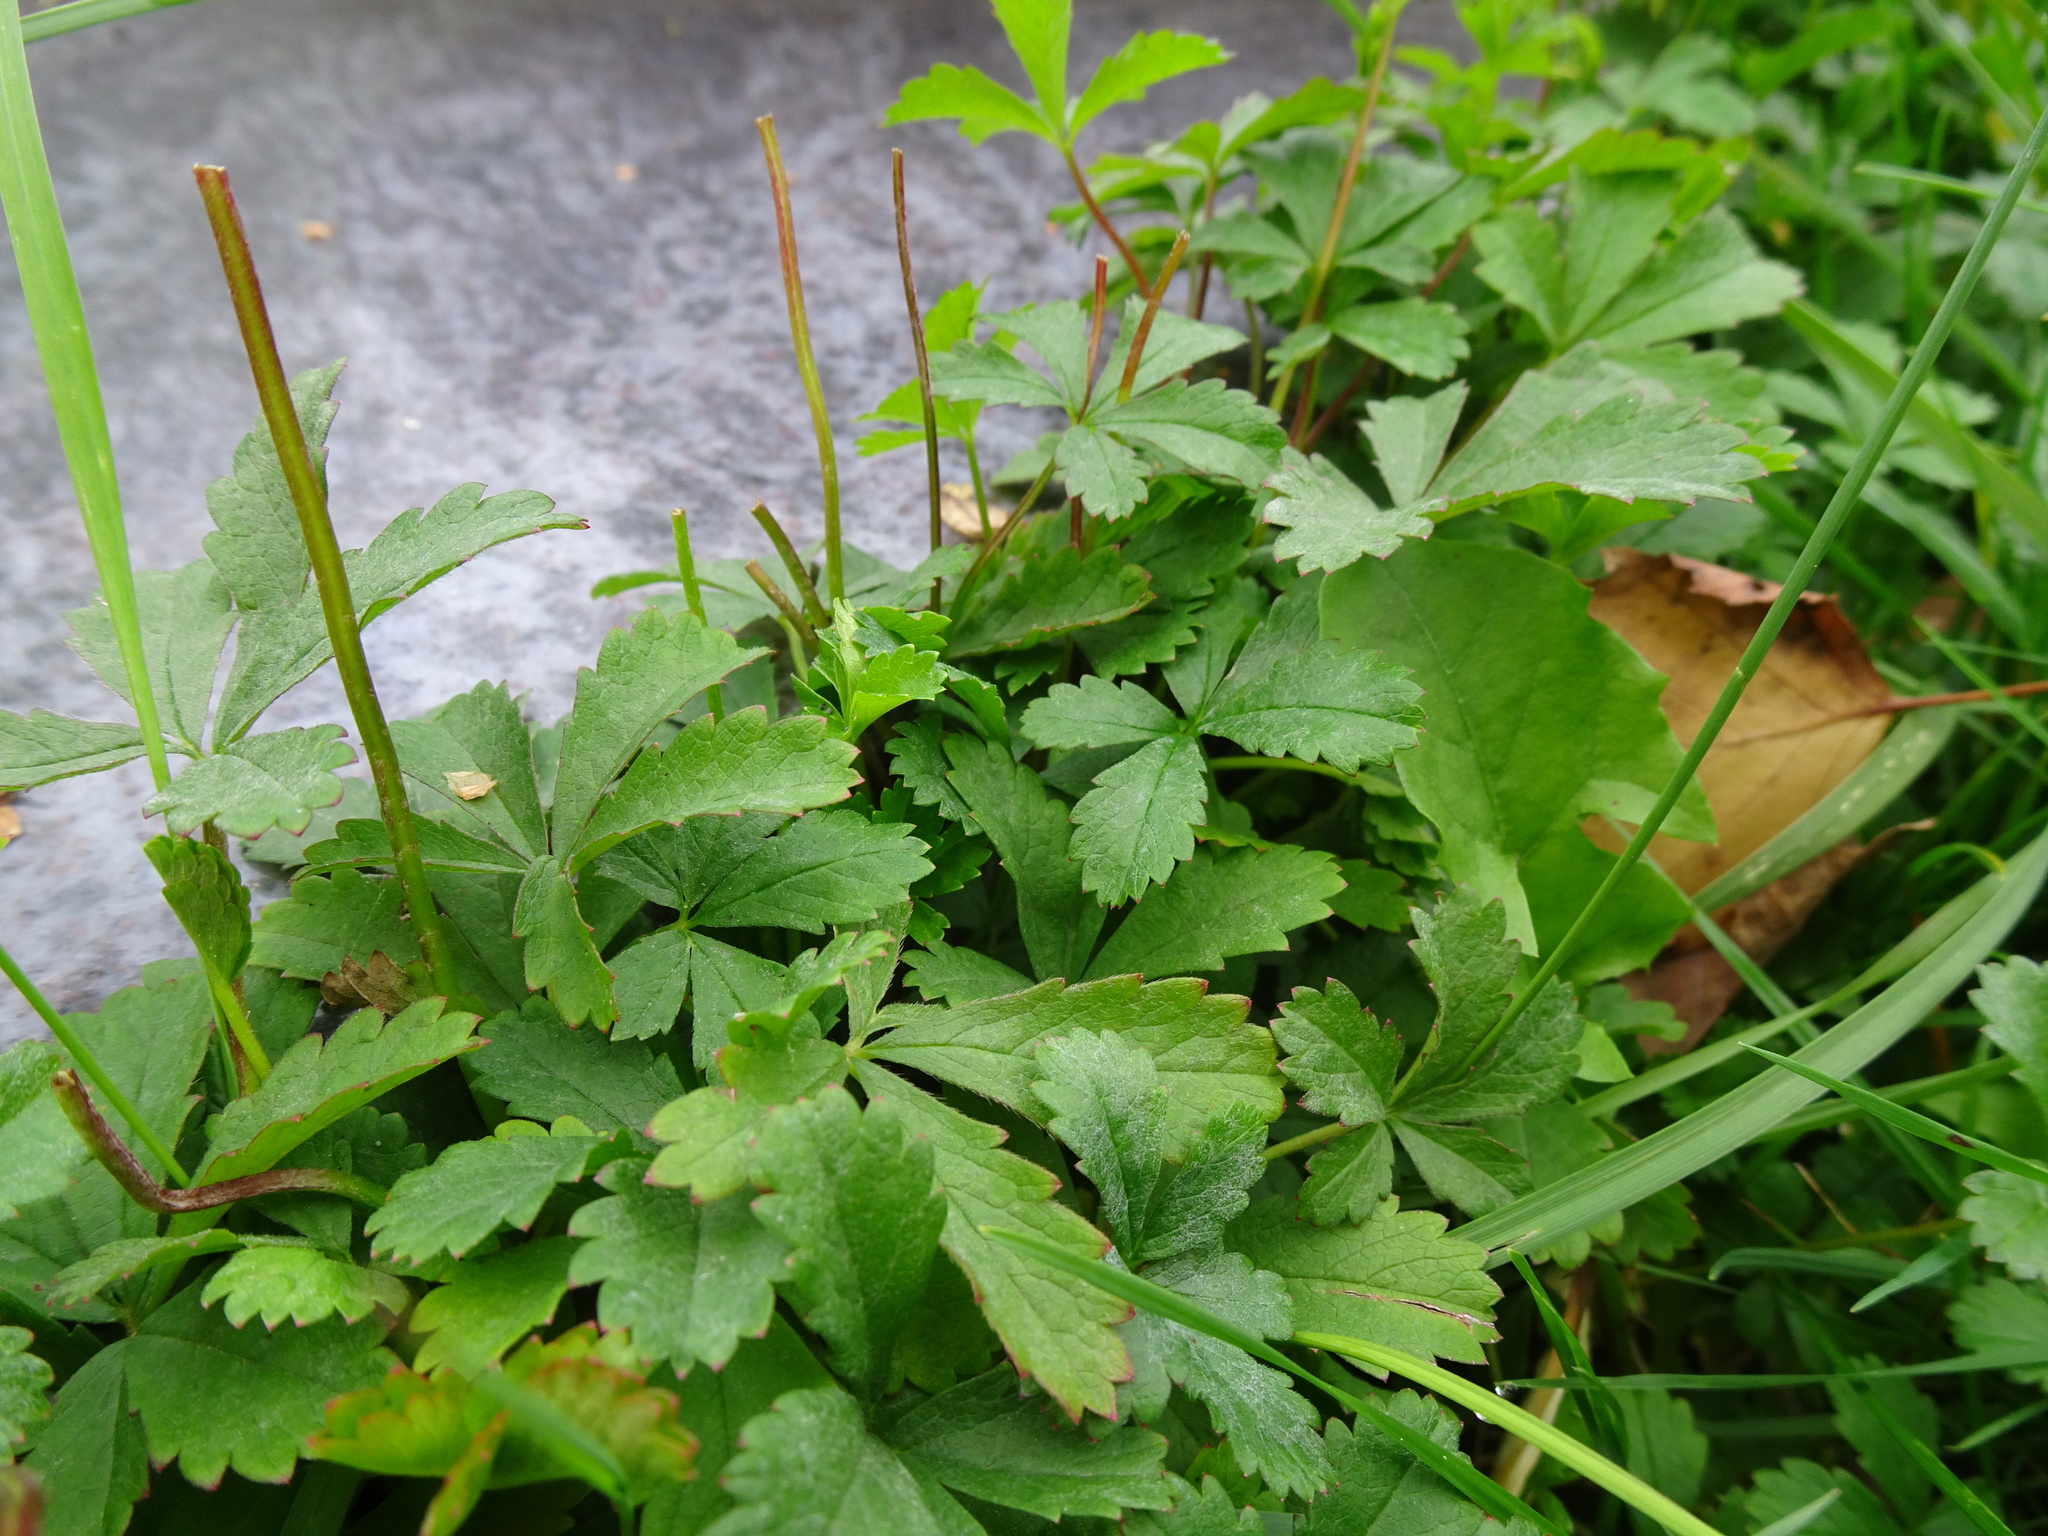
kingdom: Plantae
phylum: Tracheophyta
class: Magnoliopsida
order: Rosales
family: Rosaceae
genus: Potentilla
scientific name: Potentilla reptans
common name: Creeping cinquefoil
